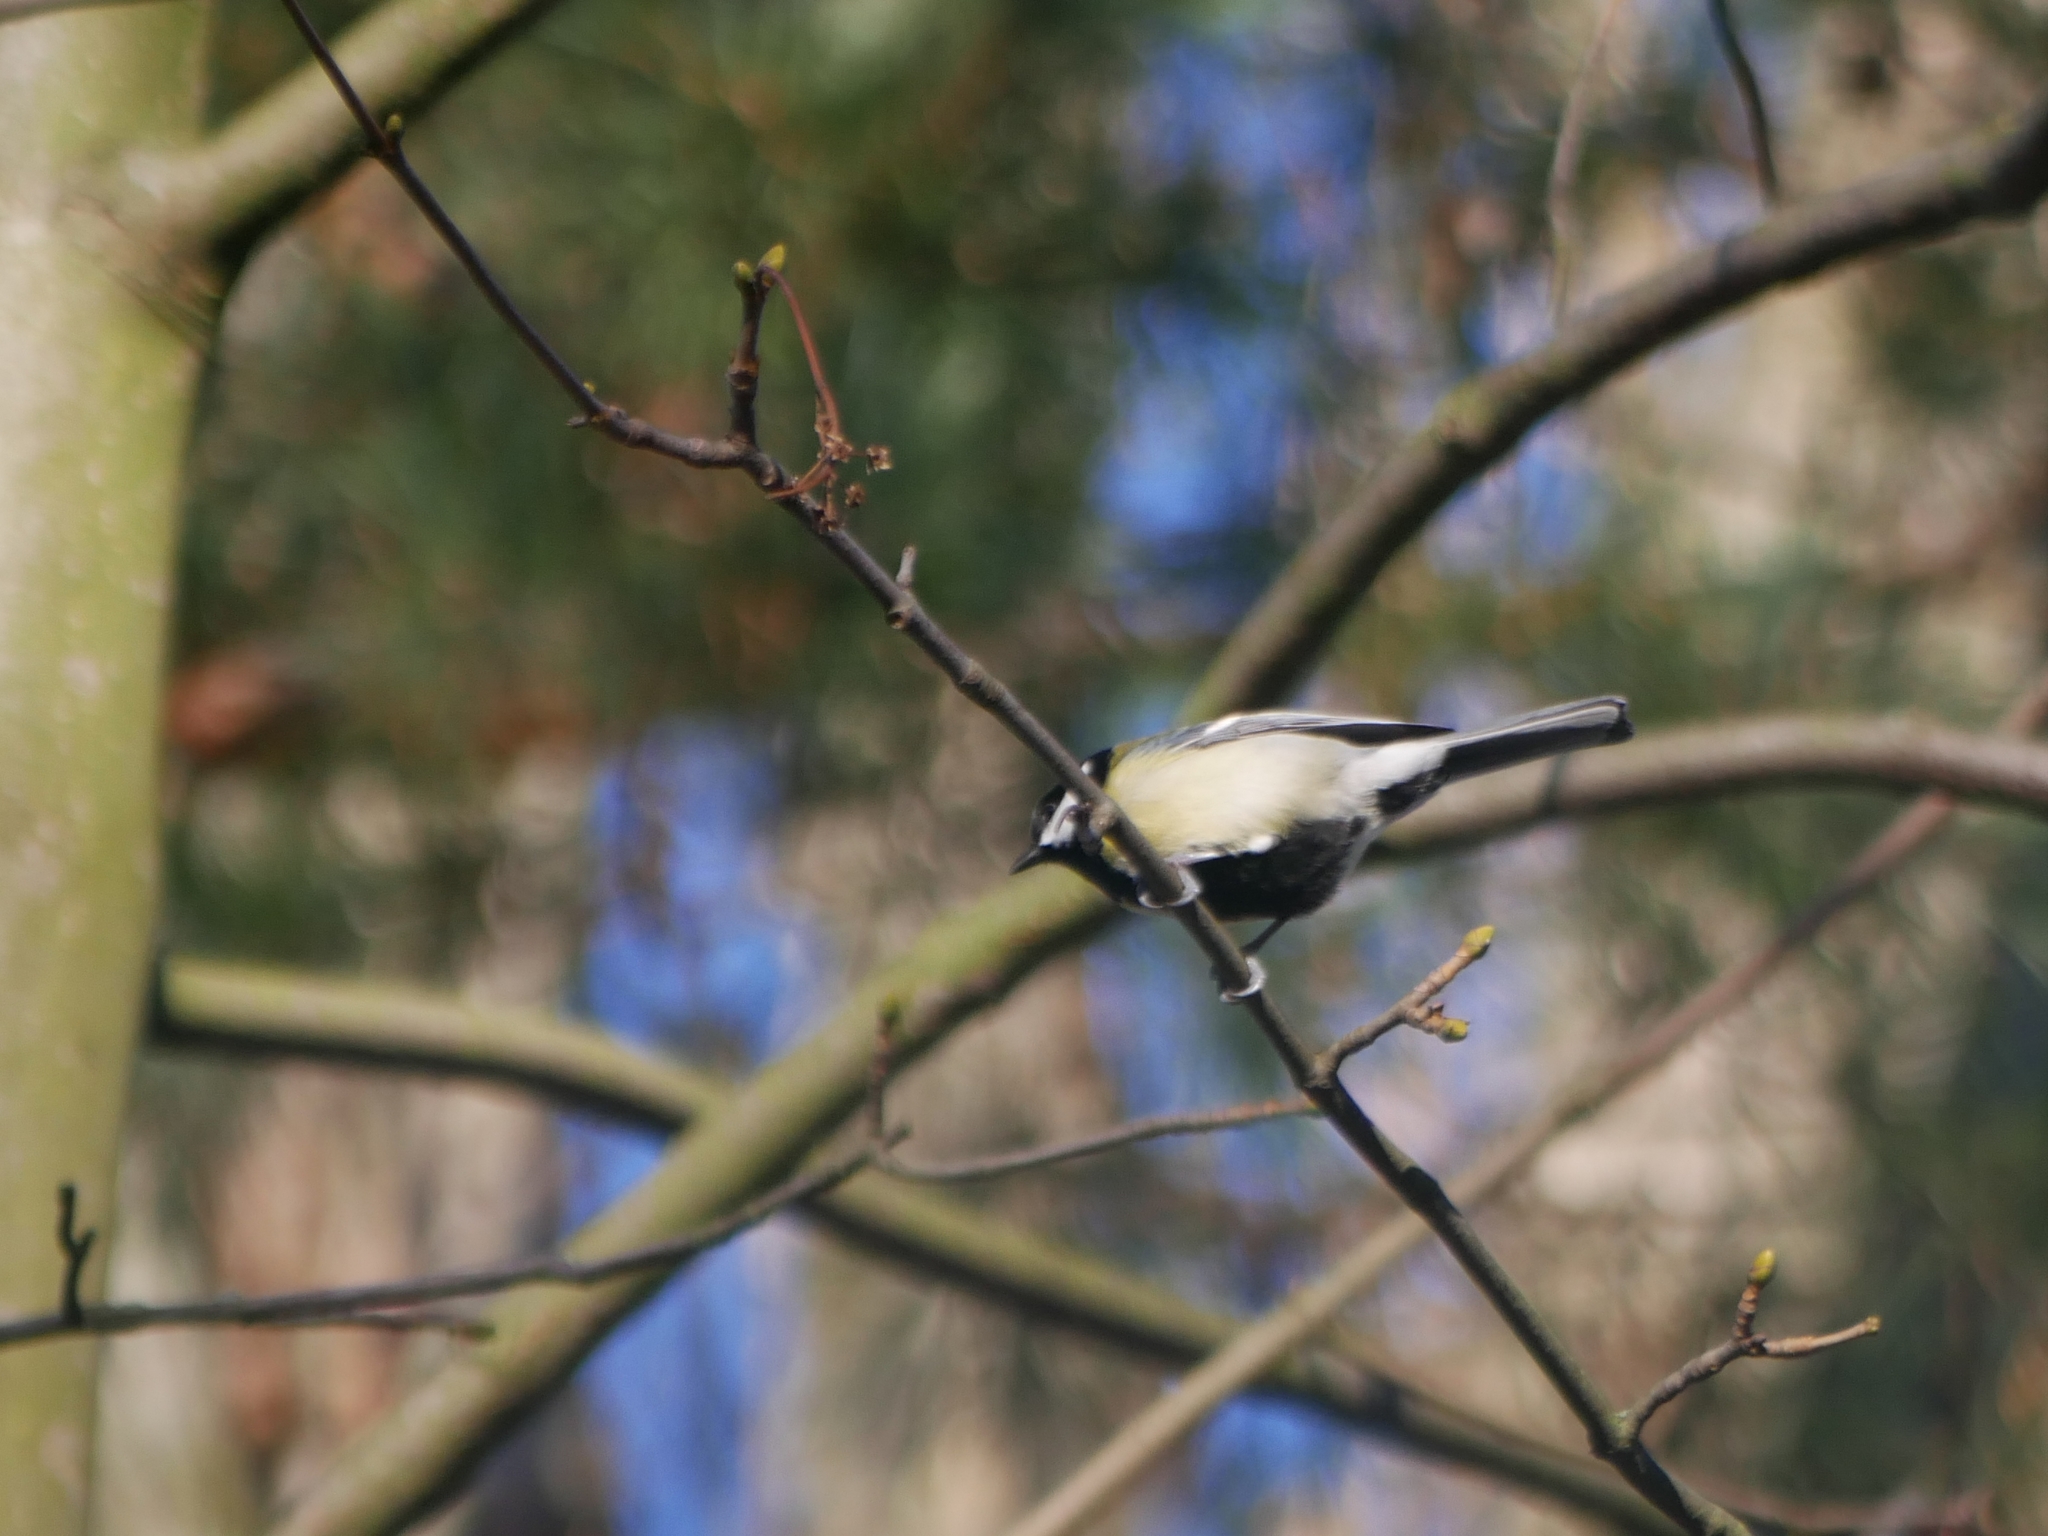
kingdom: Animalia
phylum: Chordata
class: Aves
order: Passeriformes
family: Paridae
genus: Parus
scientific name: Parus major
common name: Great tit
